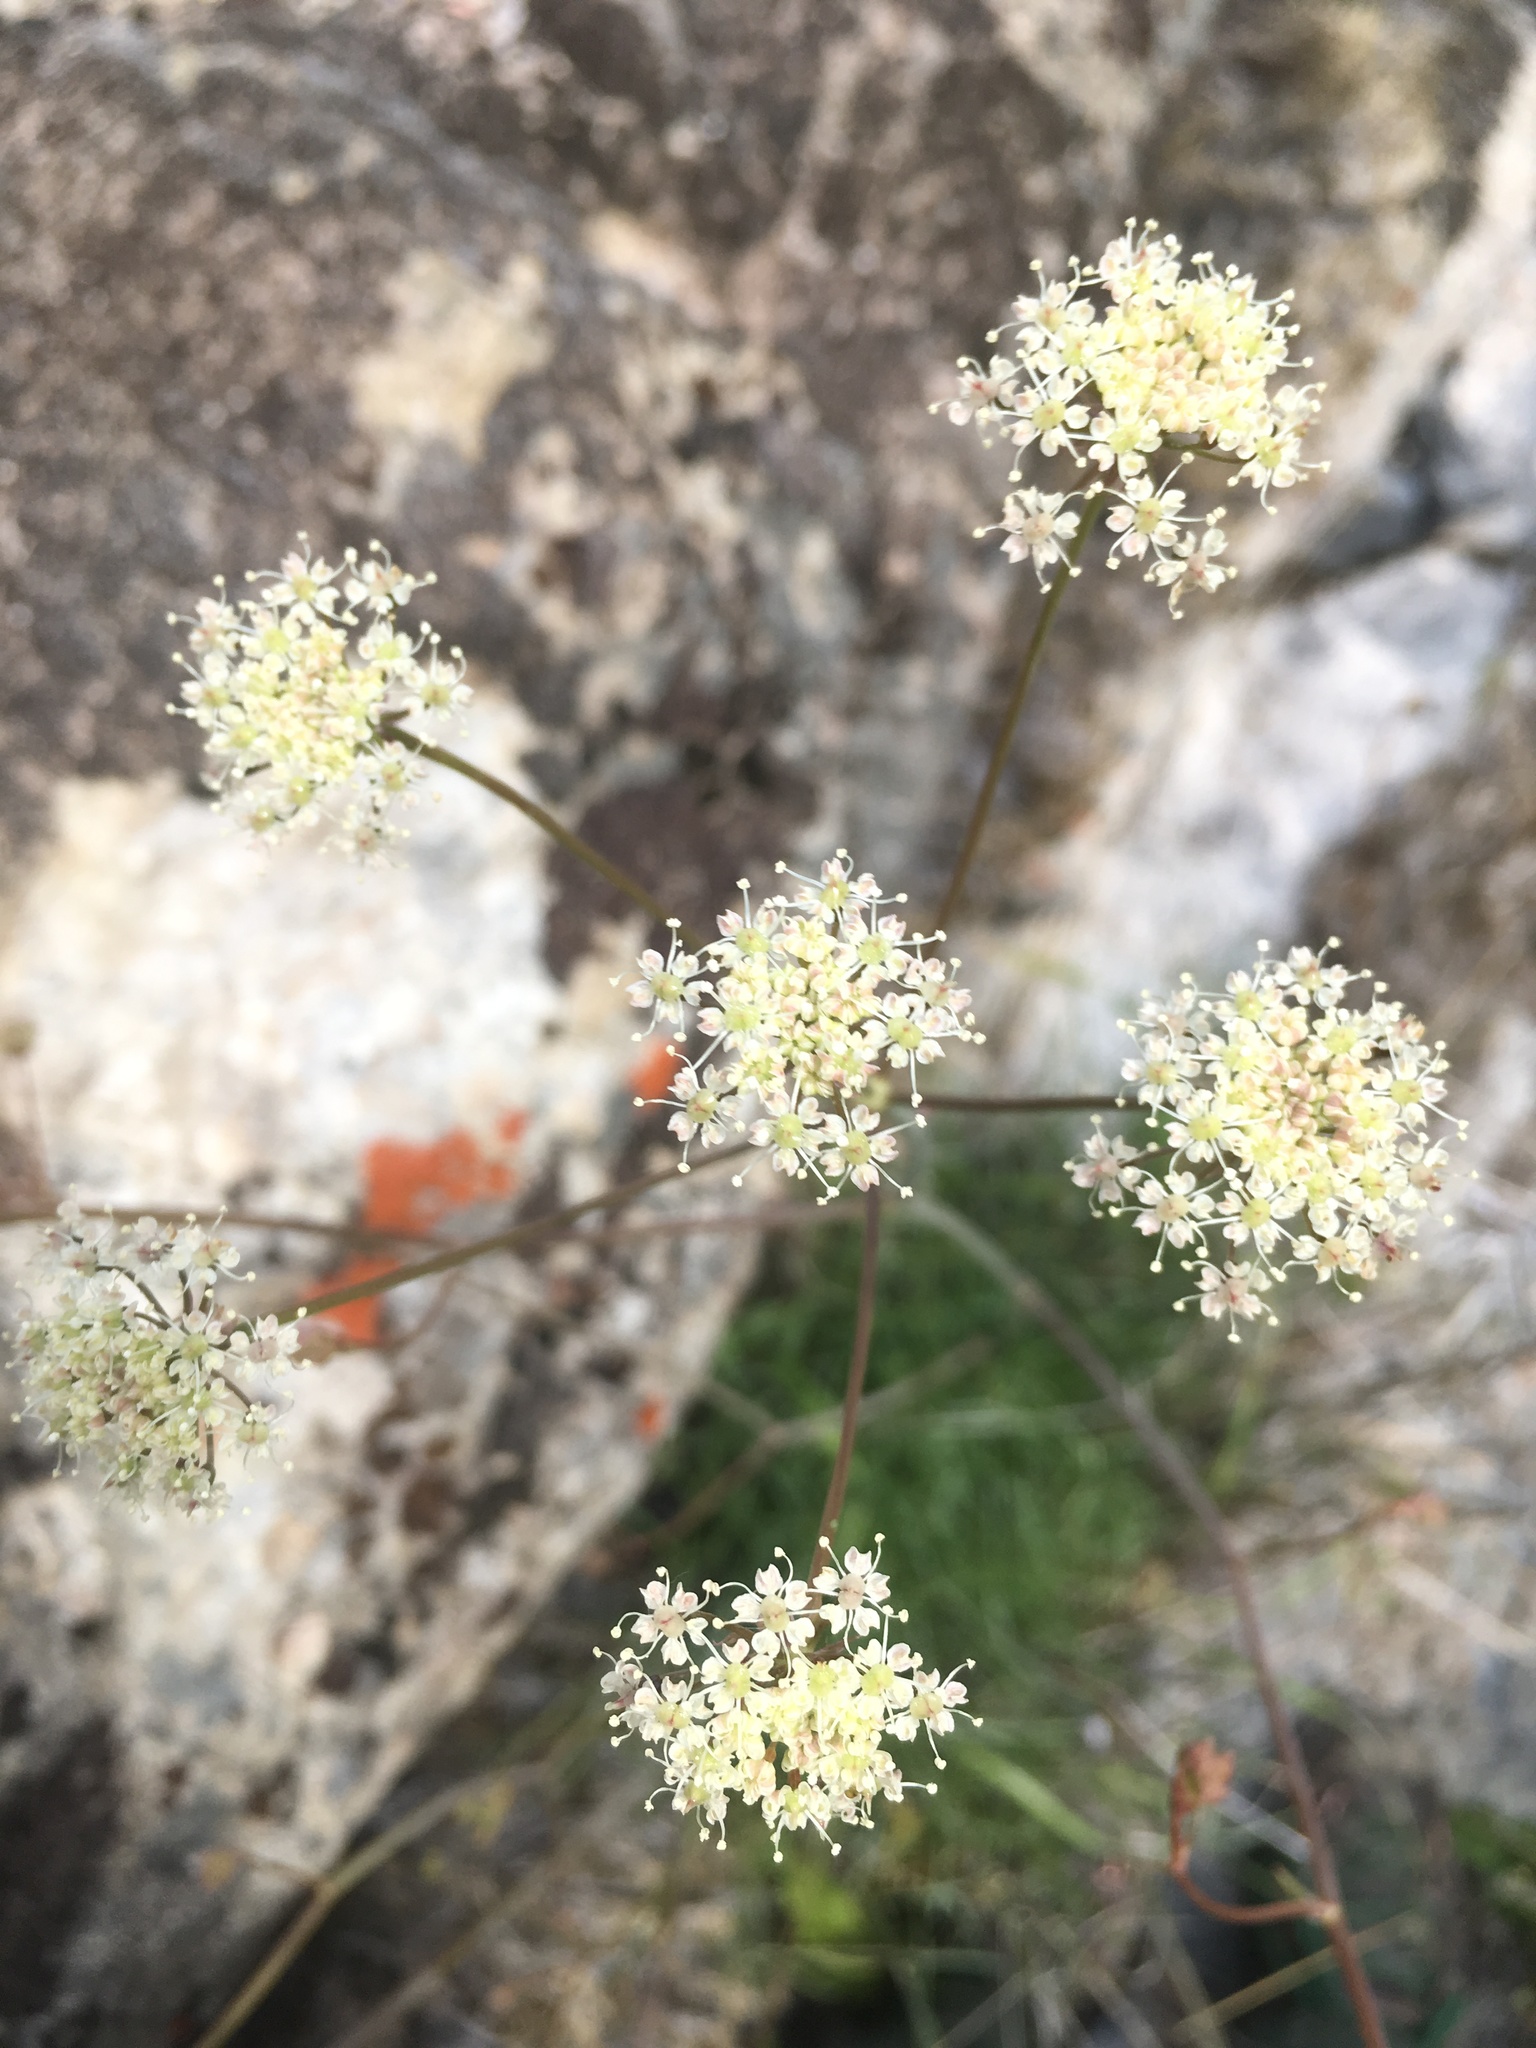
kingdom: Plantae
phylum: Tracheophyta
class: Magnoliopsida
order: Apiales
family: Apiaceae
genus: Perideridia
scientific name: Perideridia californica
